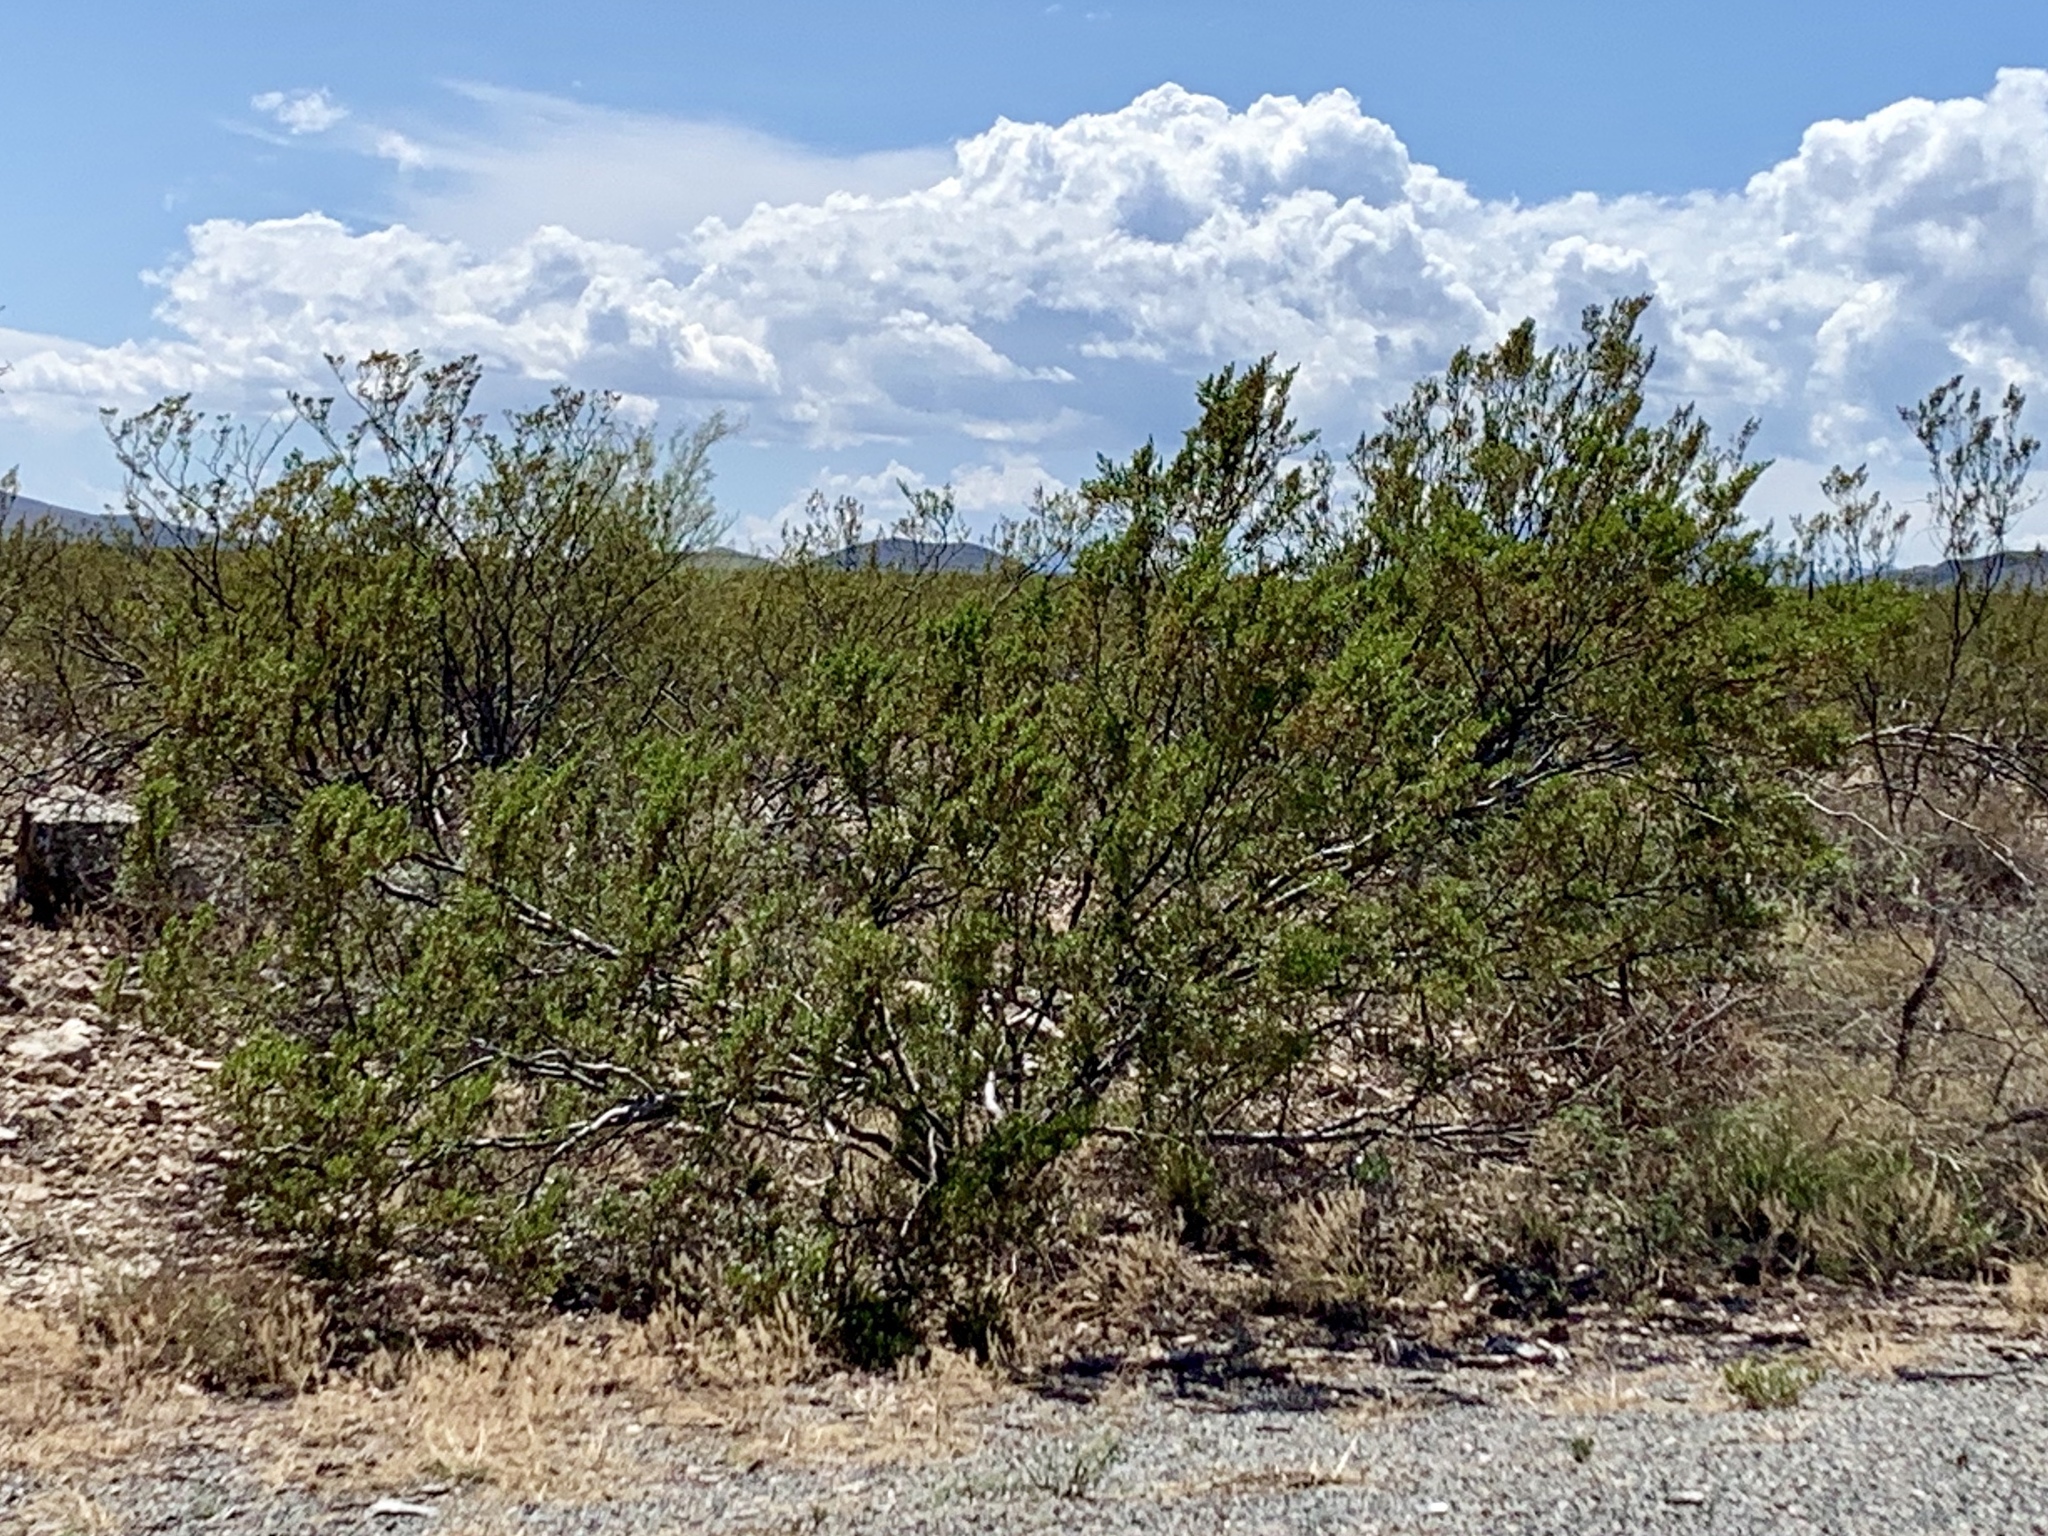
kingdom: Plantae
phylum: Tracheophyta
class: Magnoliopsida
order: Zygophyllales
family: Zygophyllaceae
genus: Larrea
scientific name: Larrea tridentata
